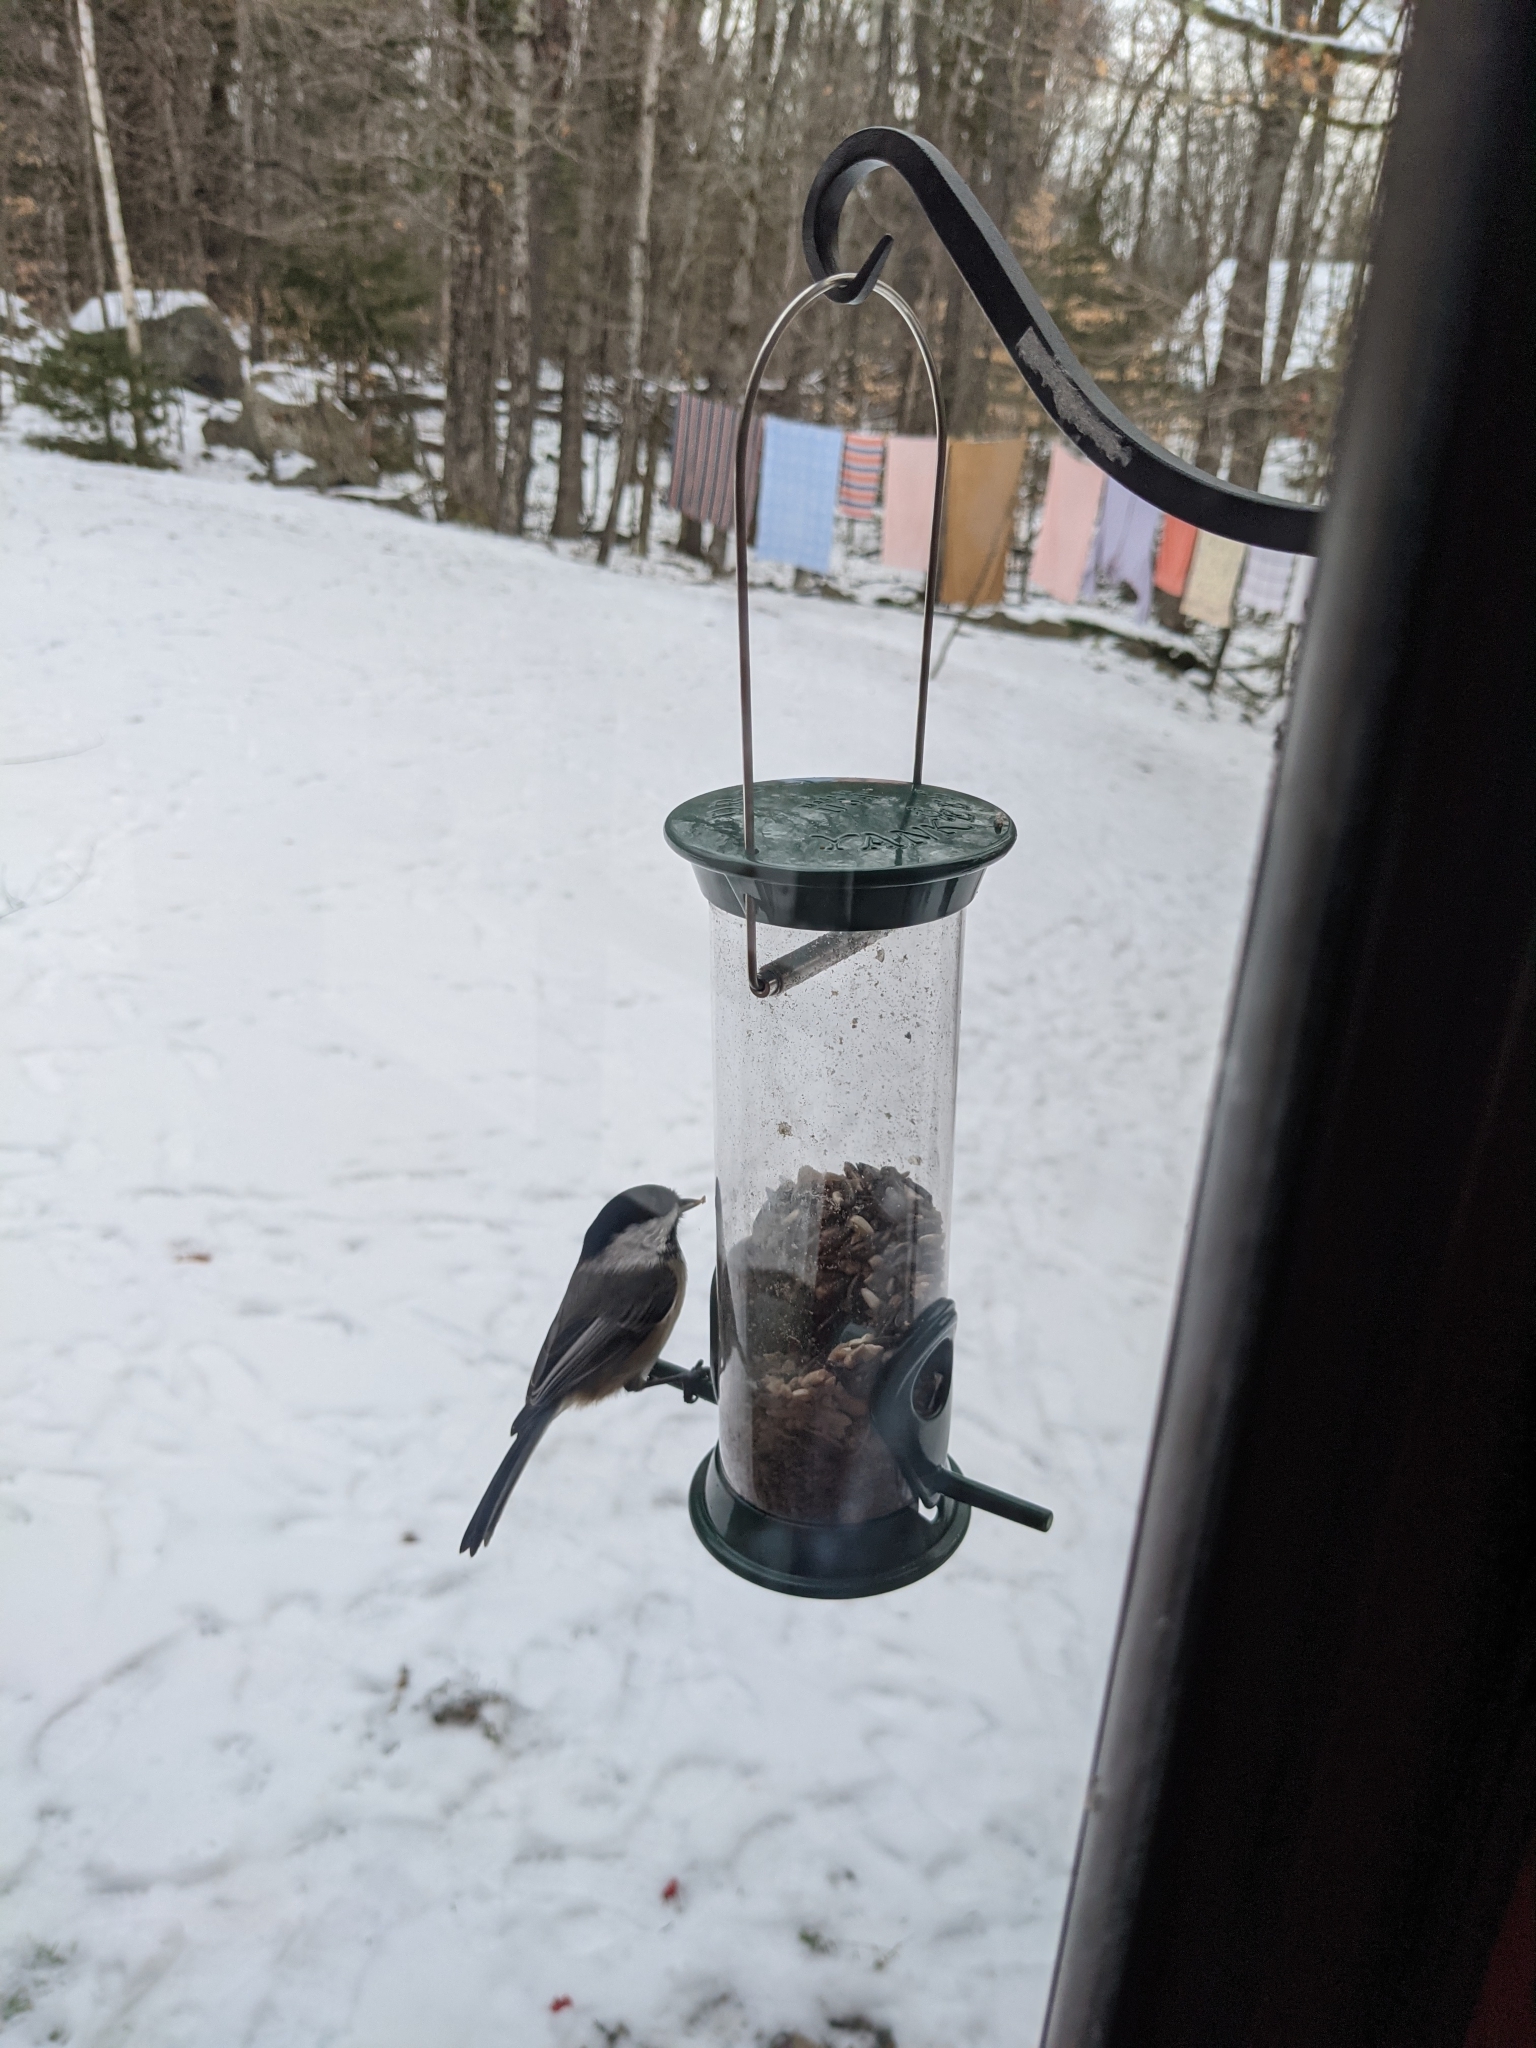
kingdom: Animalia
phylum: Chordata
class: Aves
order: Passeriformes
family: Paridae
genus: Poecile
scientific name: Poecile atricapillus
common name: Black-capped chickadee
